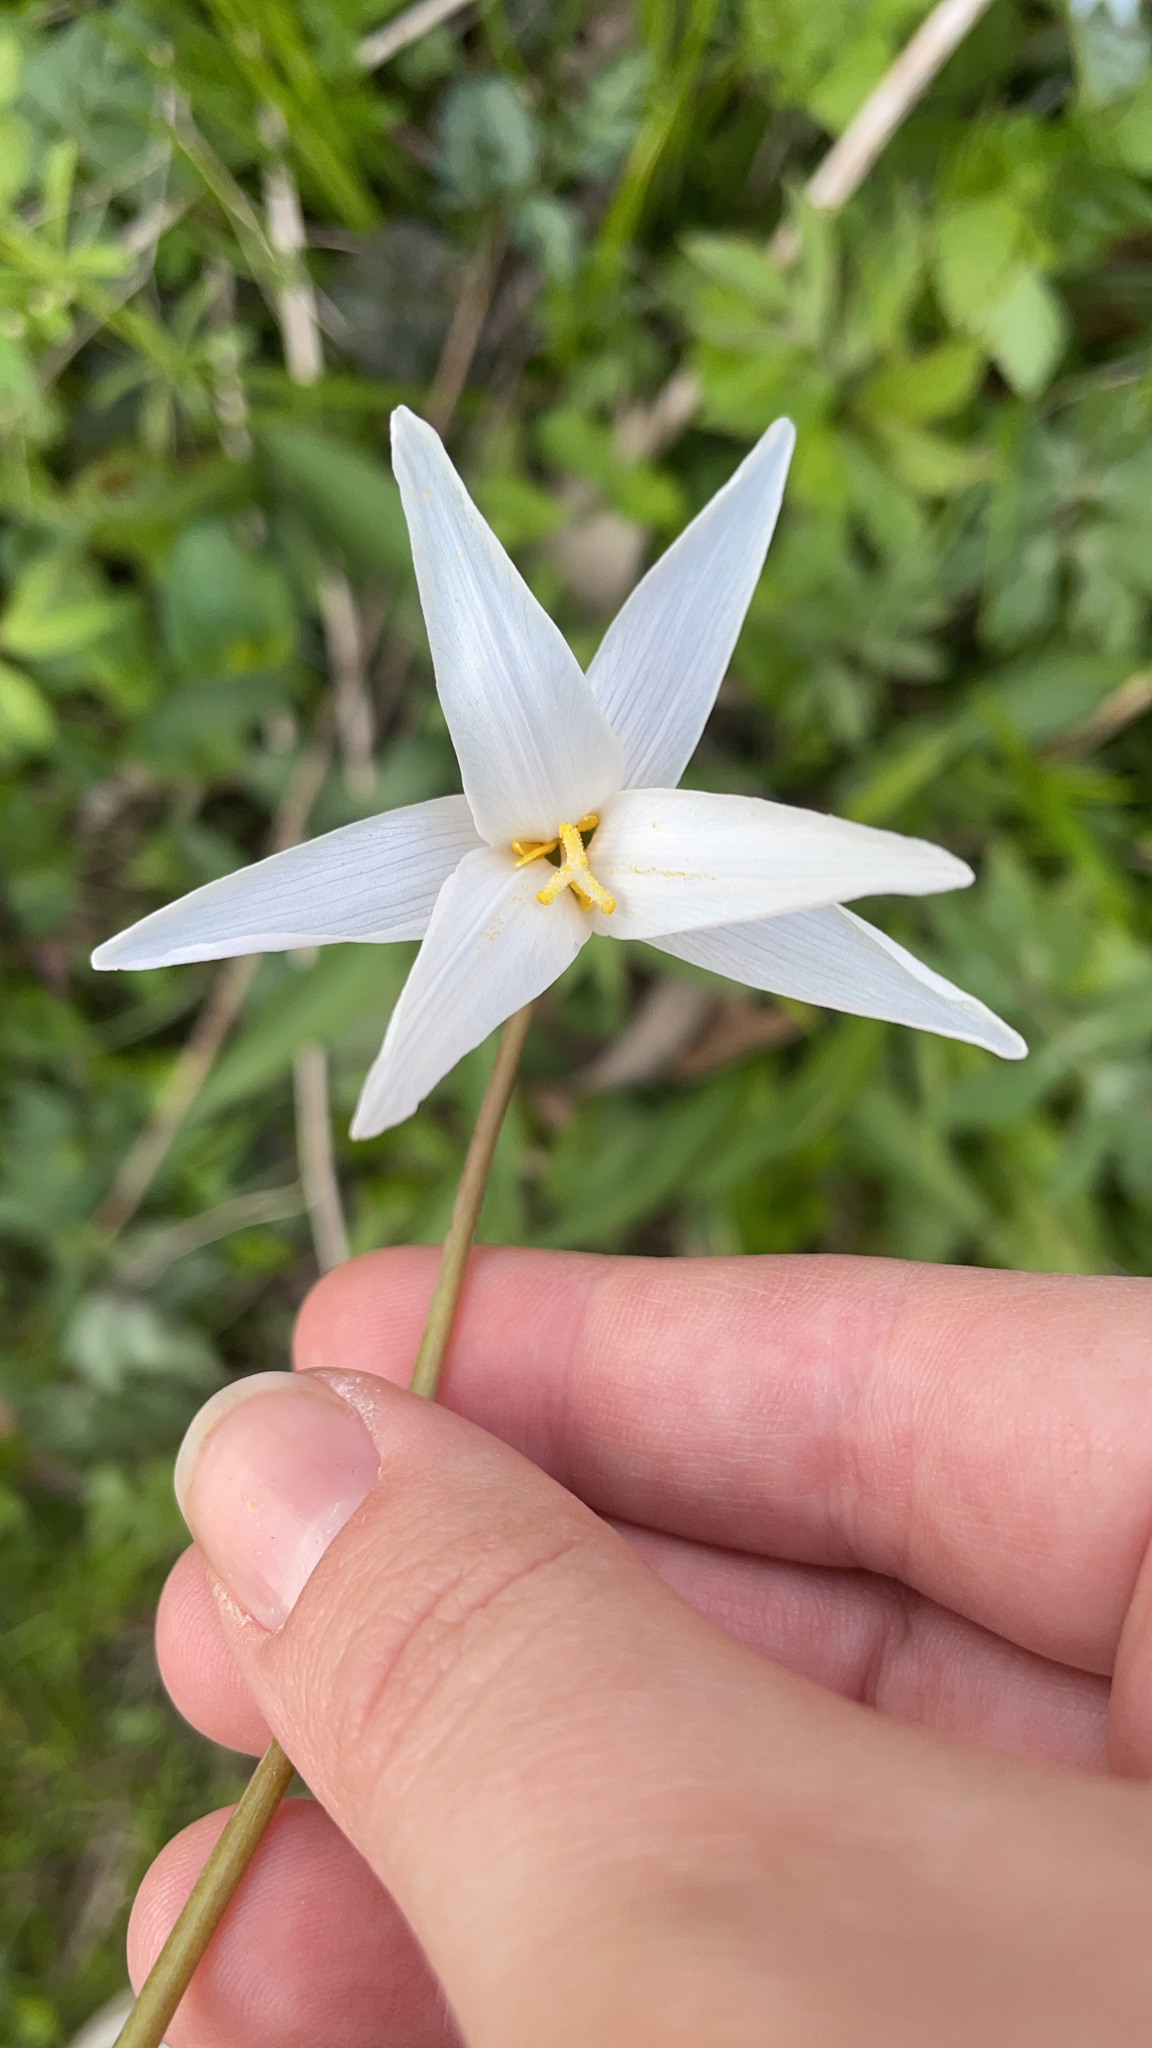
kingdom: Plantae
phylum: Tracheophyta
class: Liliopsida
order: Liliales
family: Liliaceae
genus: Erythronium
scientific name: Erythronium albidum
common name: White trout-lily
